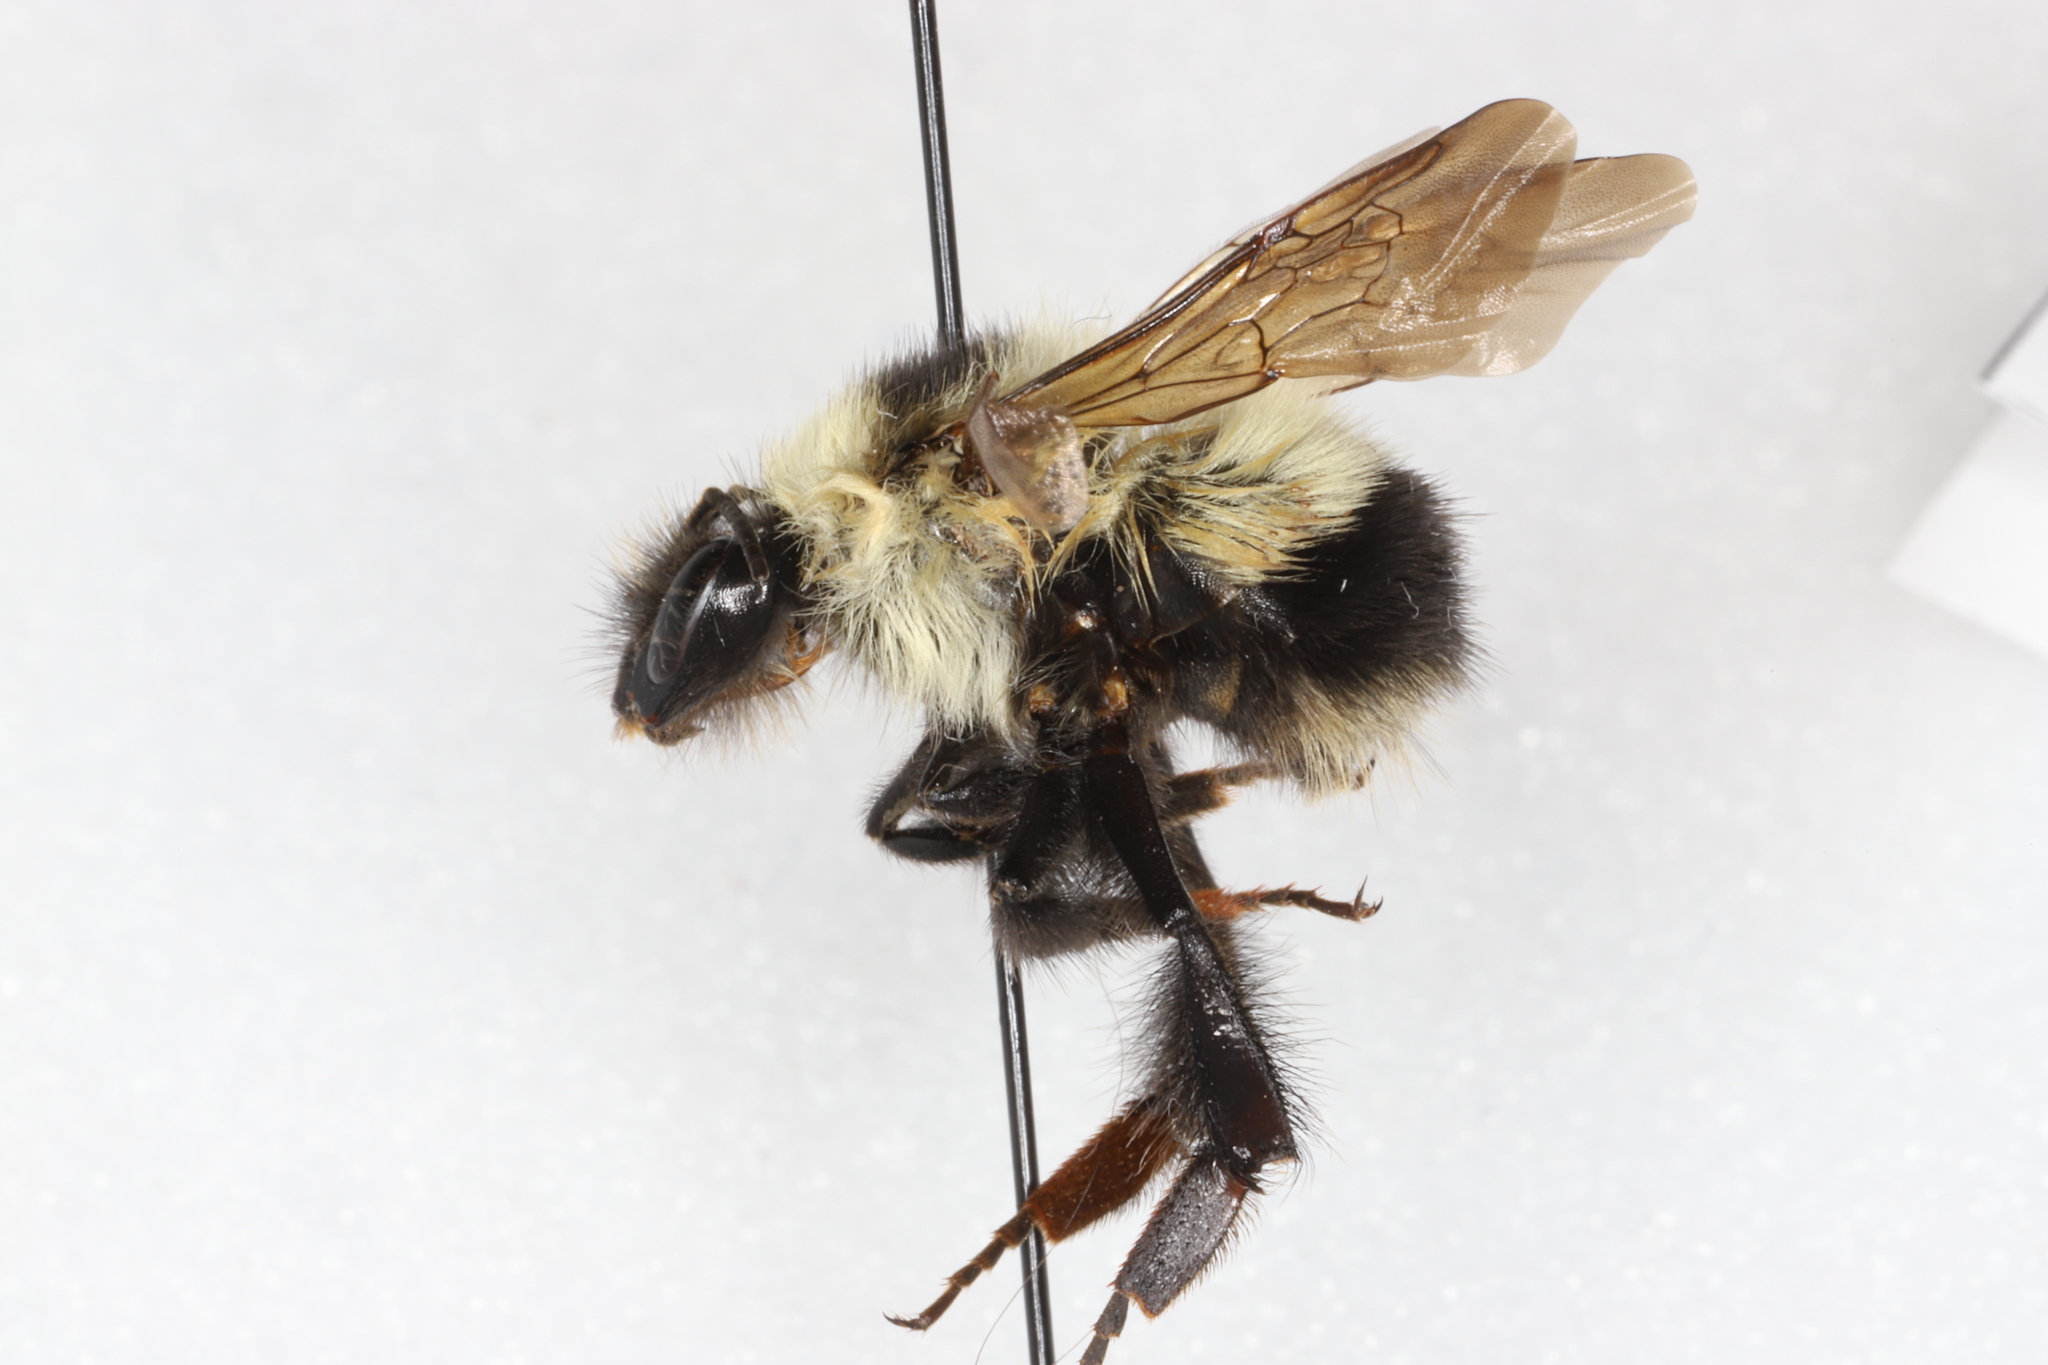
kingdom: Animalia
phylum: Arthropoda
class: Insecta
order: Hymenoptera
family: Apidae
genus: Bombus
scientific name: Bombus sandersoni
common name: Sanderson bumble bee
